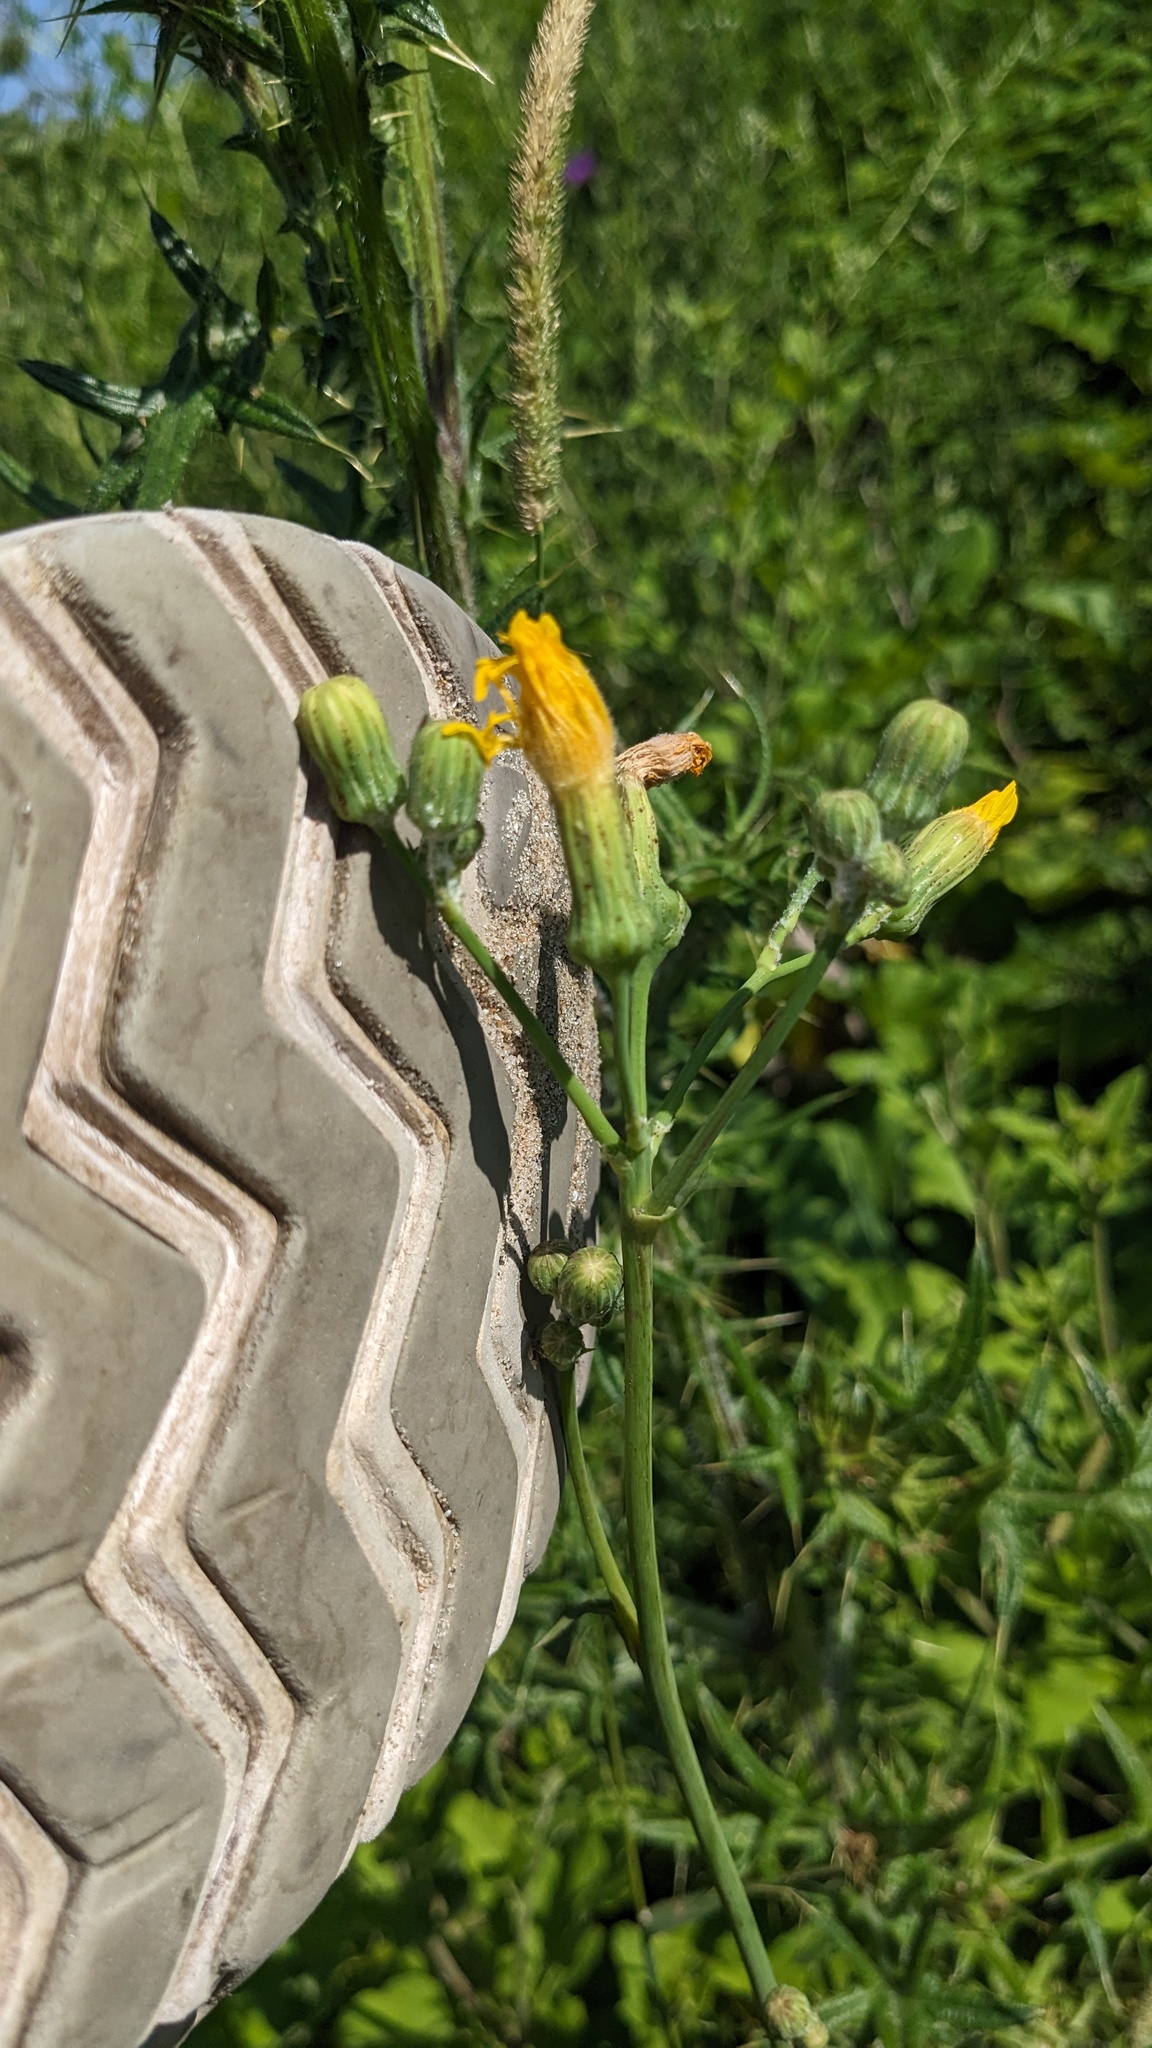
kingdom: Plantae
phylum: Tracheophyta
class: Magnoliopsida
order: Asterales
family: Asteraceae
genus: Sonchus
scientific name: Sonchus arvensis
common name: Perennial sow-thistle
